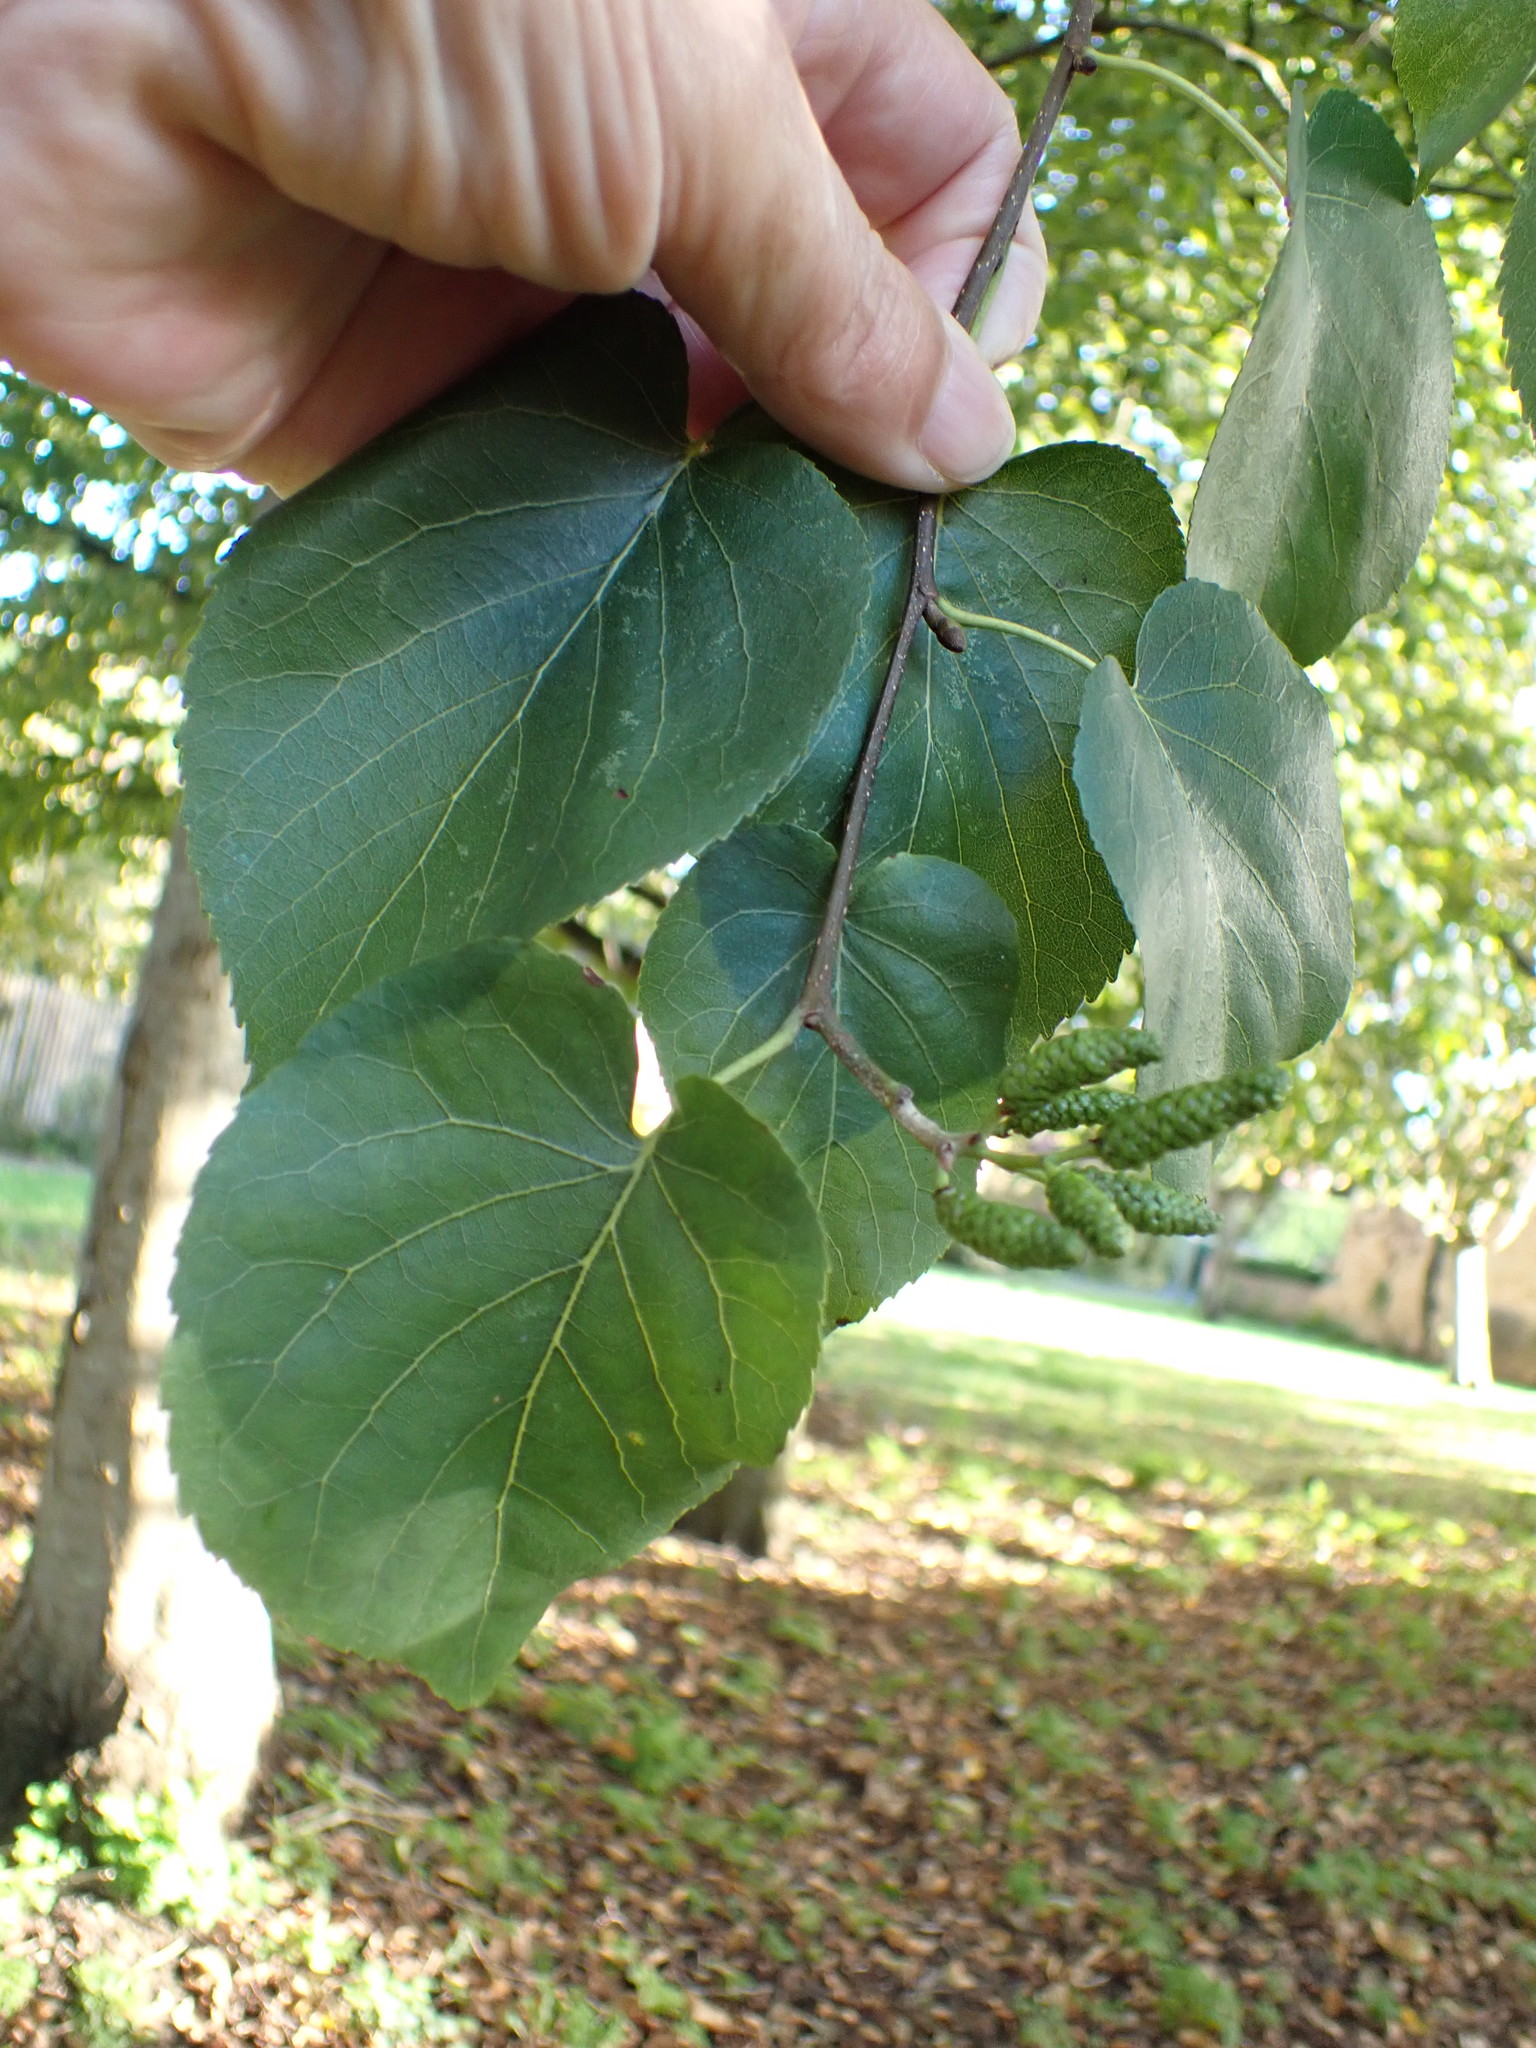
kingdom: Plantae
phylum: Tracheophyta
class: Magnoliopsida
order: Fagales
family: Betulaceae
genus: Alnus
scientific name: Alnus cordata
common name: Italian alder
